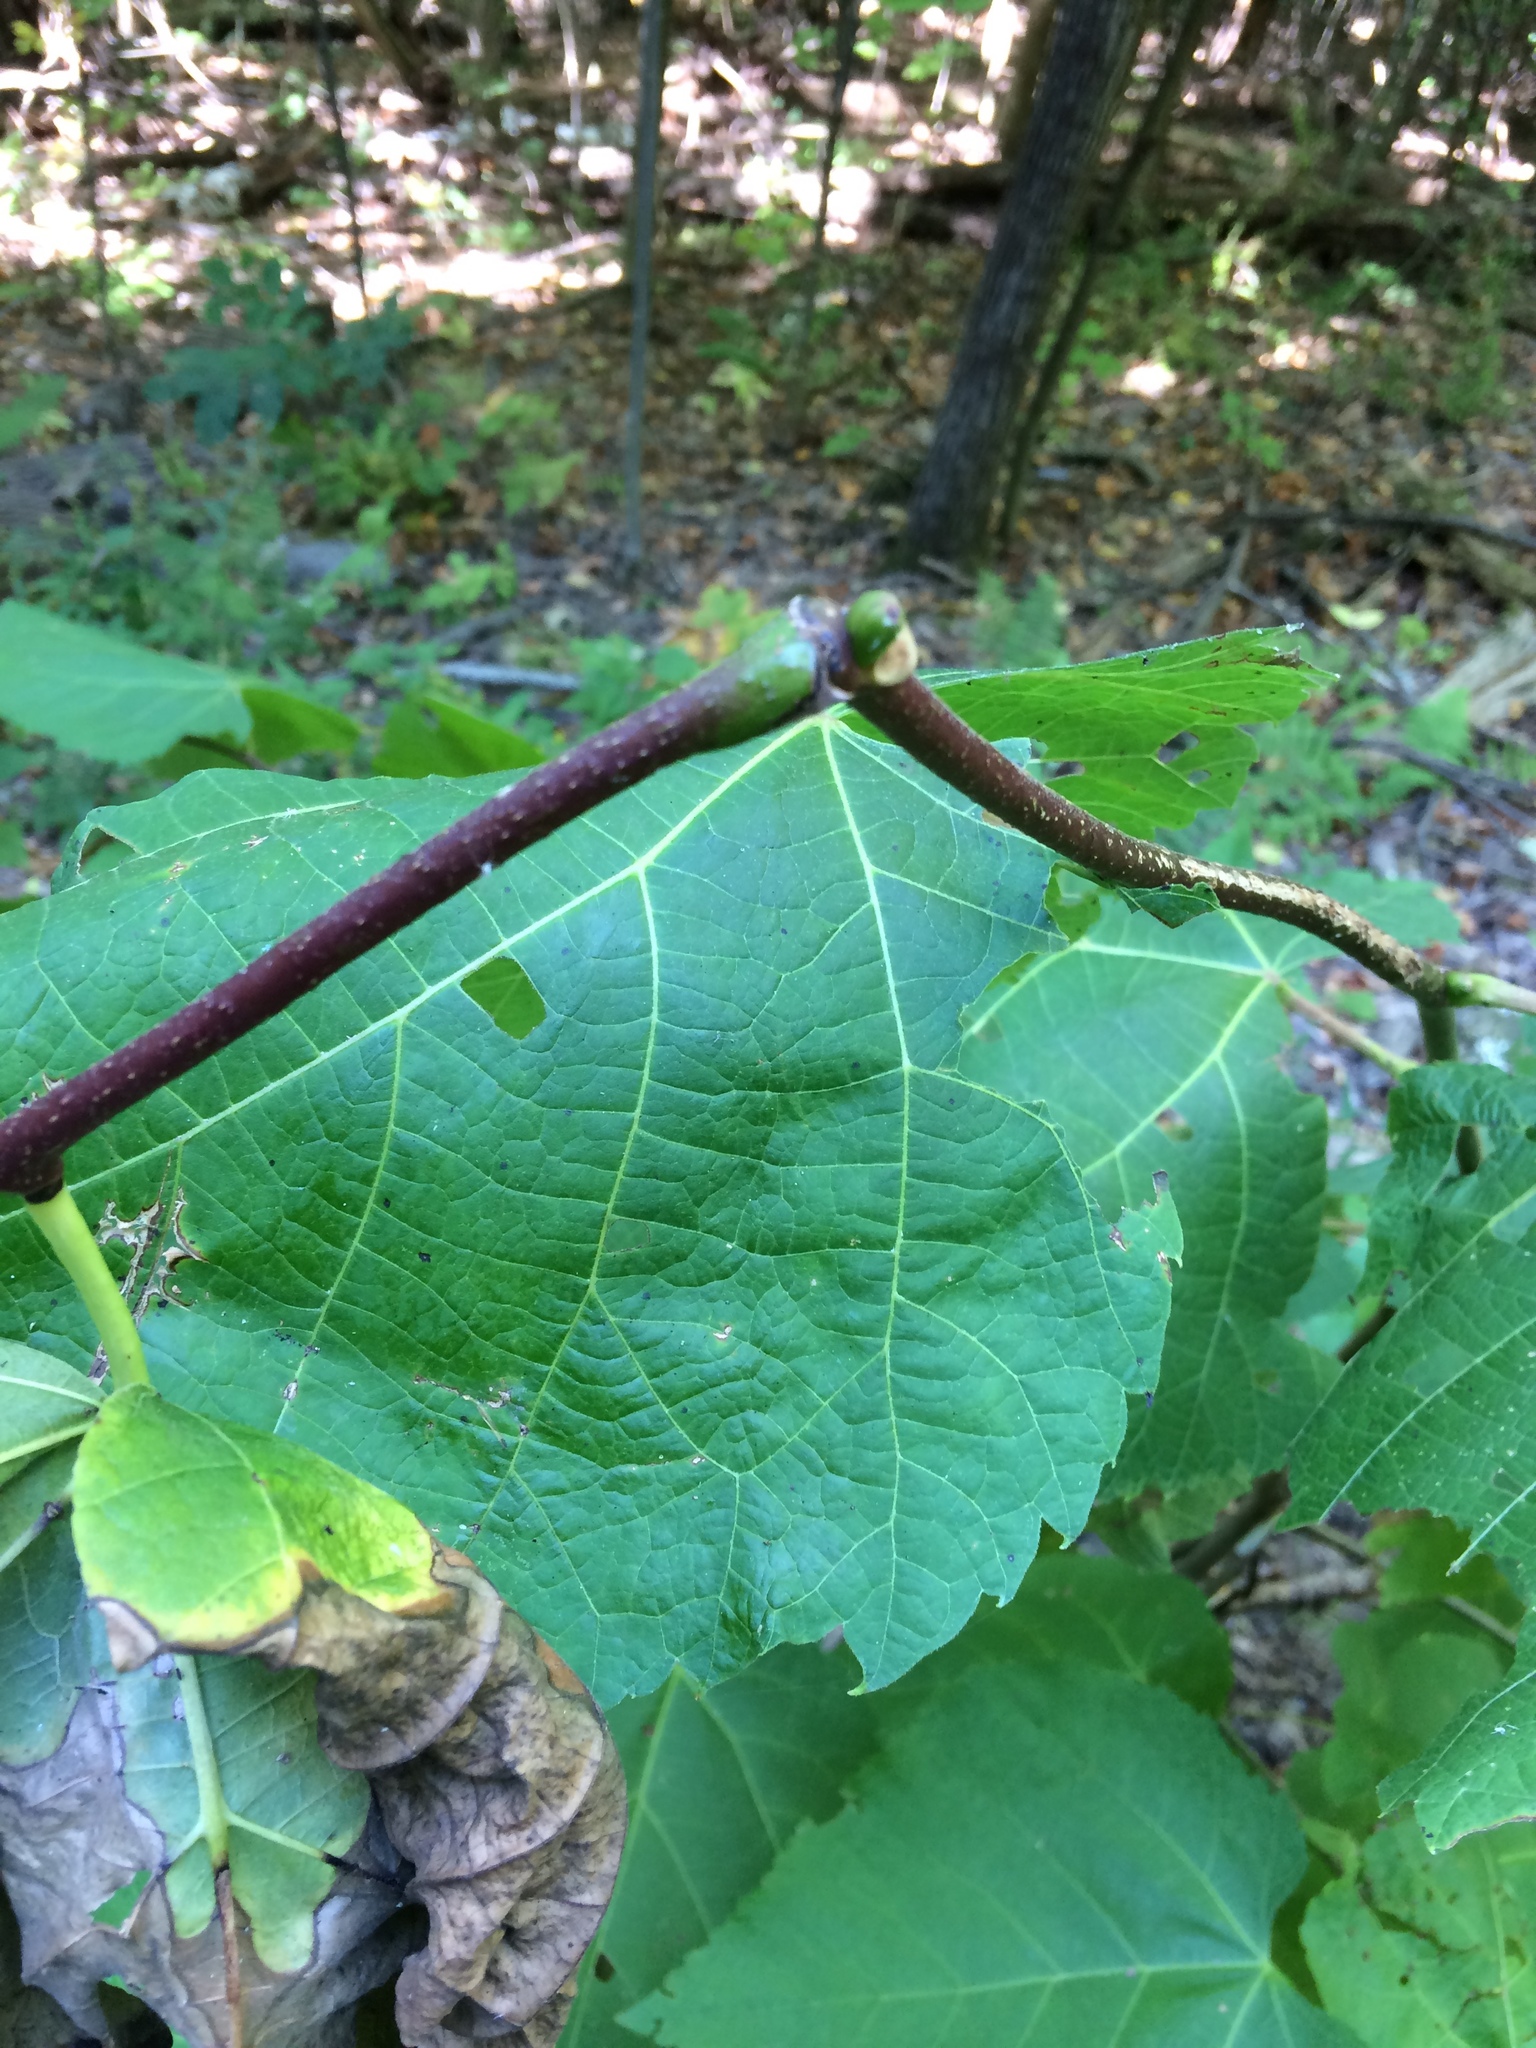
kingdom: Plantae
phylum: Tracheophyta
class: Magnoliopsida
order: Malvales
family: Malvaceae
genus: Tilia
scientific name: Tilia americana
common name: Basswood
